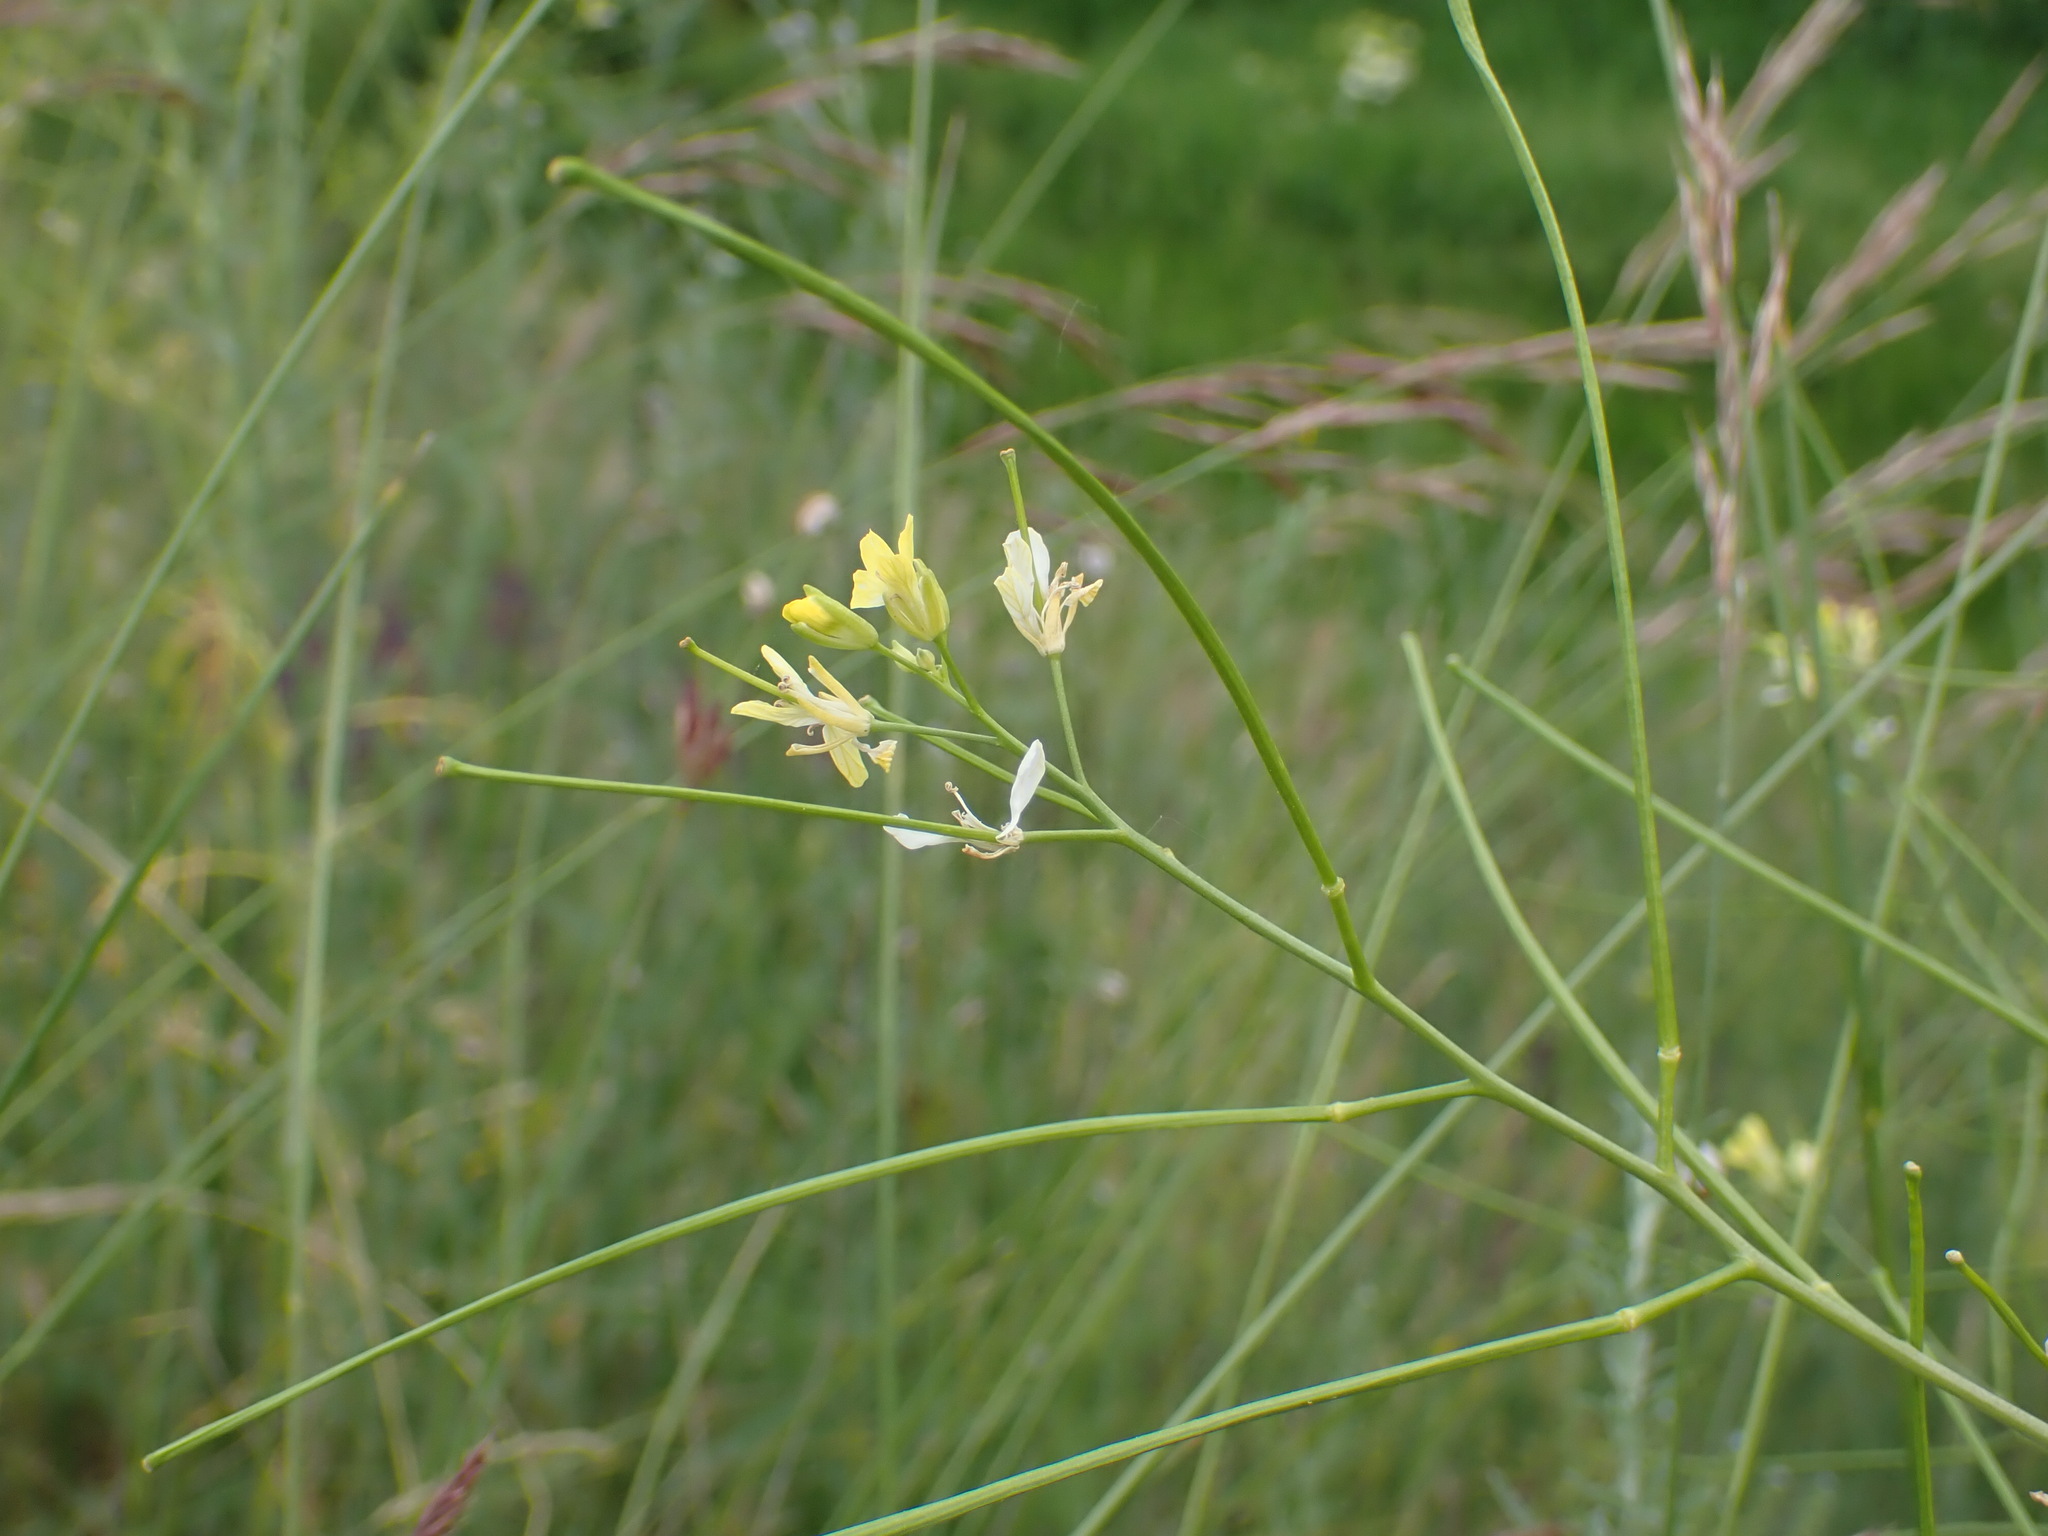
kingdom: Plantae
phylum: Tracheophyta
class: Magnoliopsida
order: Brassicales
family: Brassicaceae
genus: Sisymbrium
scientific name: Sisymbrium altissimum
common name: Tall rocket
